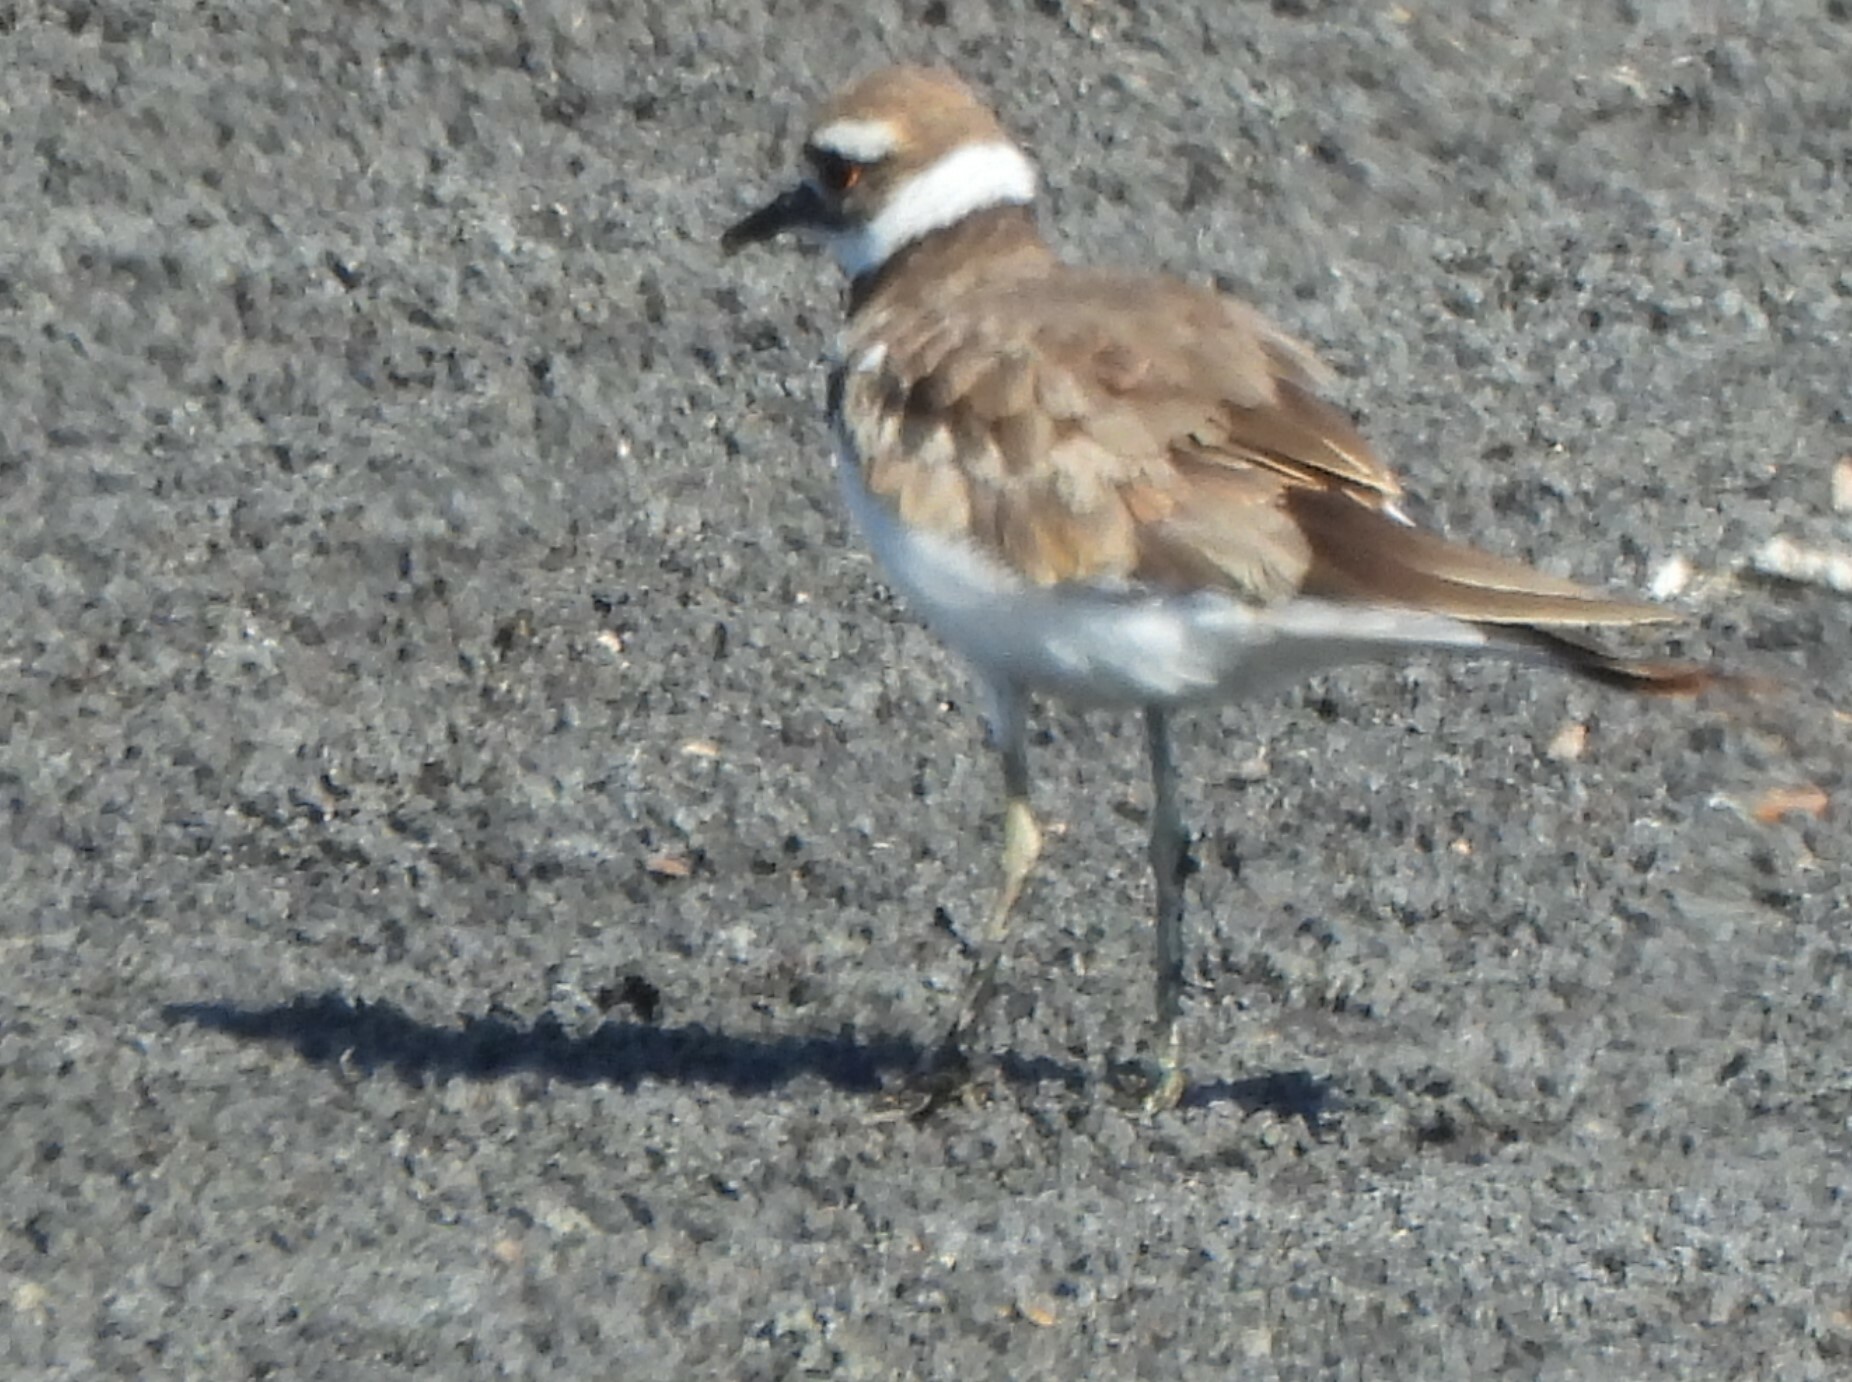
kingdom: Animalia
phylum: Chordata
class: Aves
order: Charadriiformes
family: Charadriidae
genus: Charadrius
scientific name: Charadrius vociferus
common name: Killdeer
